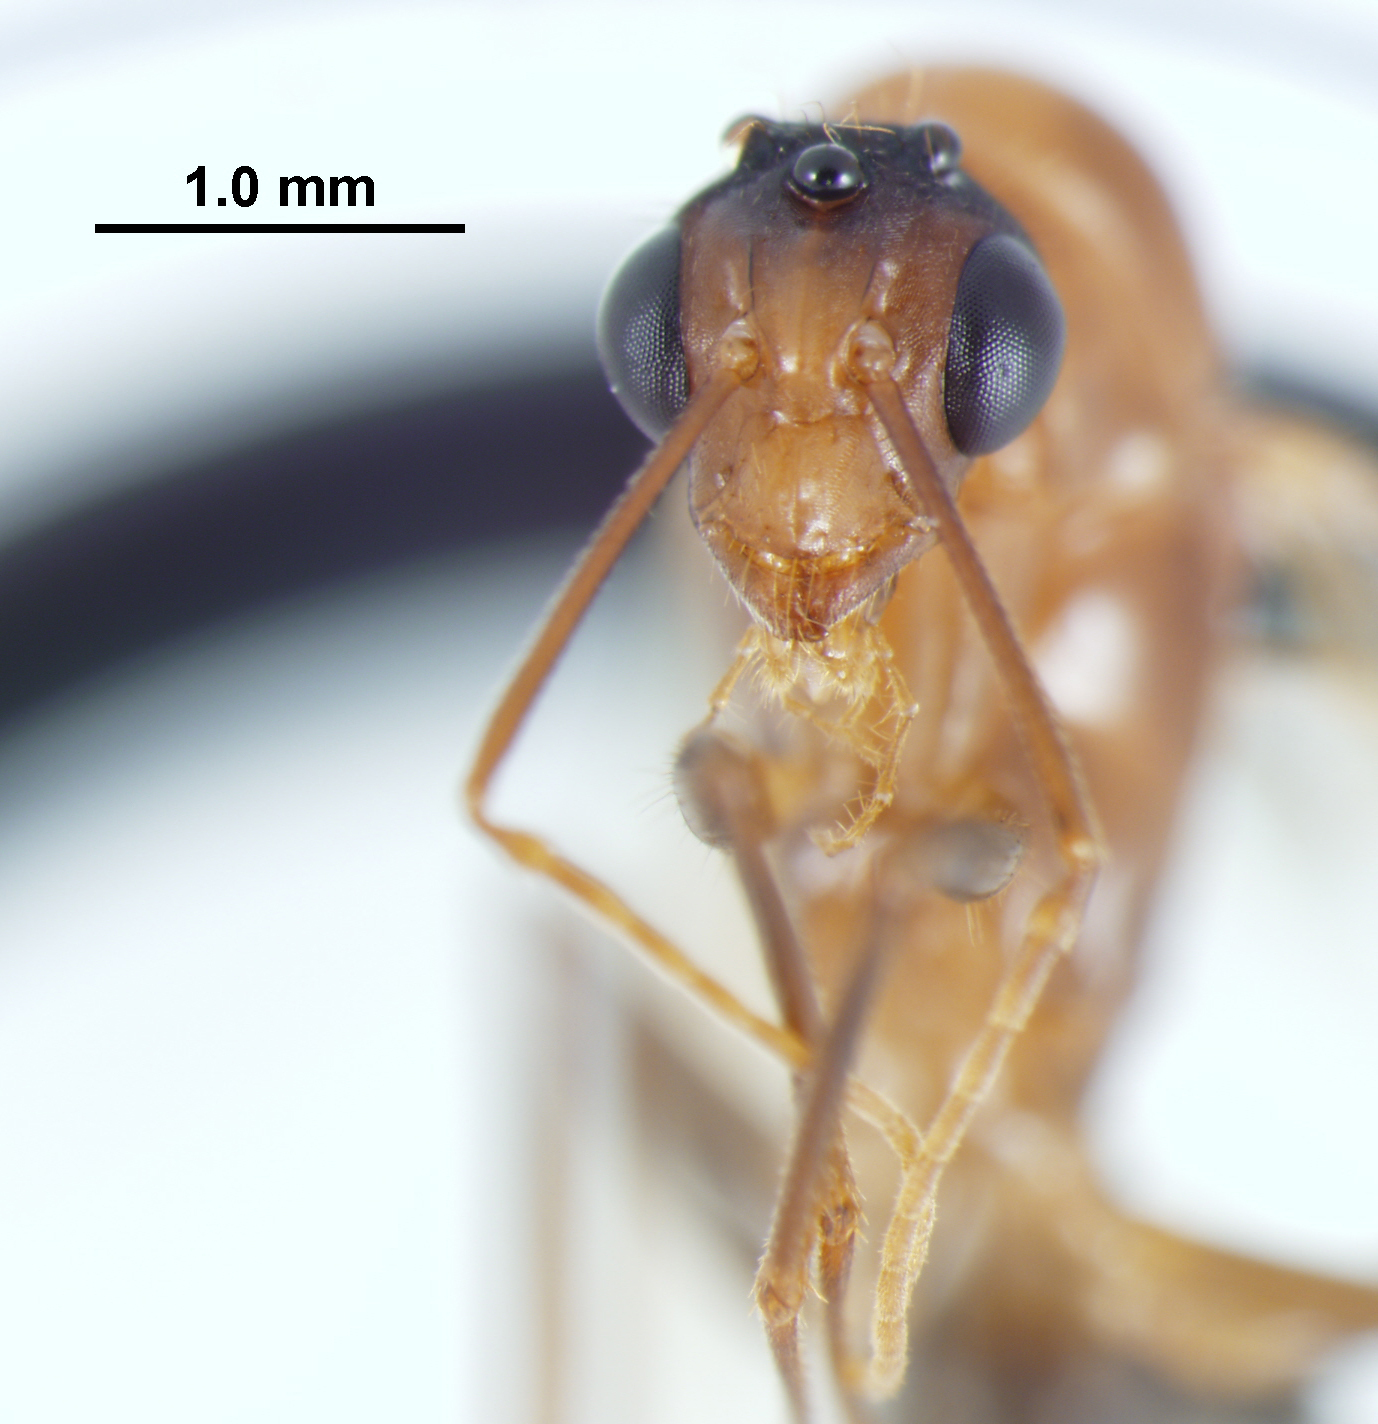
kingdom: Animalia
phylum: Arthropoda
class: Insecta
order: Hymenoptera
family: Formicidae
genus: Camponotus
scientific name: Camponotus inaequalis
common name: Ant
